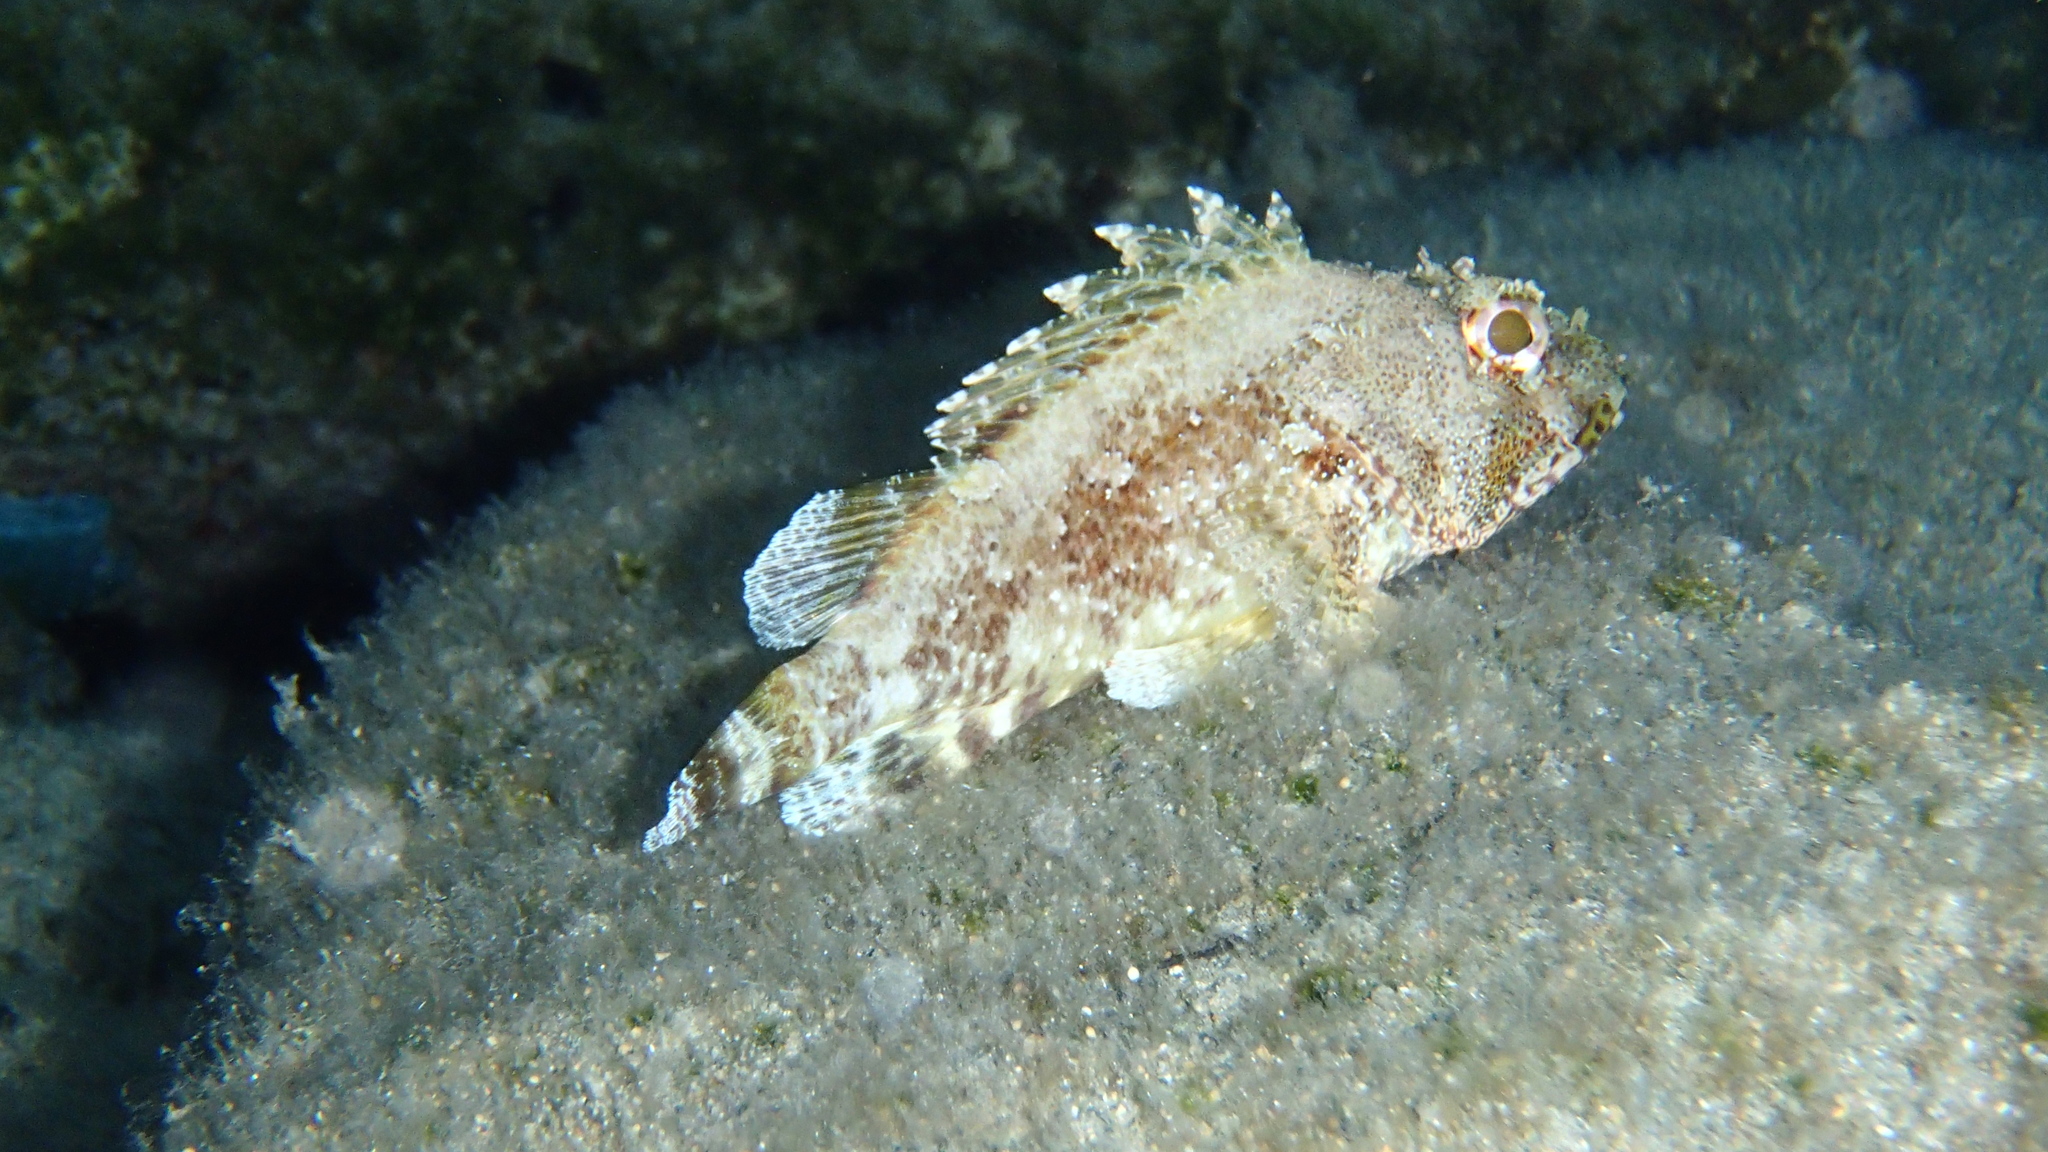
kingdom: Animalia
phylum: Chordata
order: Scorpaeniformes
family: Scorpaenidae
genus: Scorpaena
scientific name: Scorpaena maderensis
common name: Madeira rockfish
